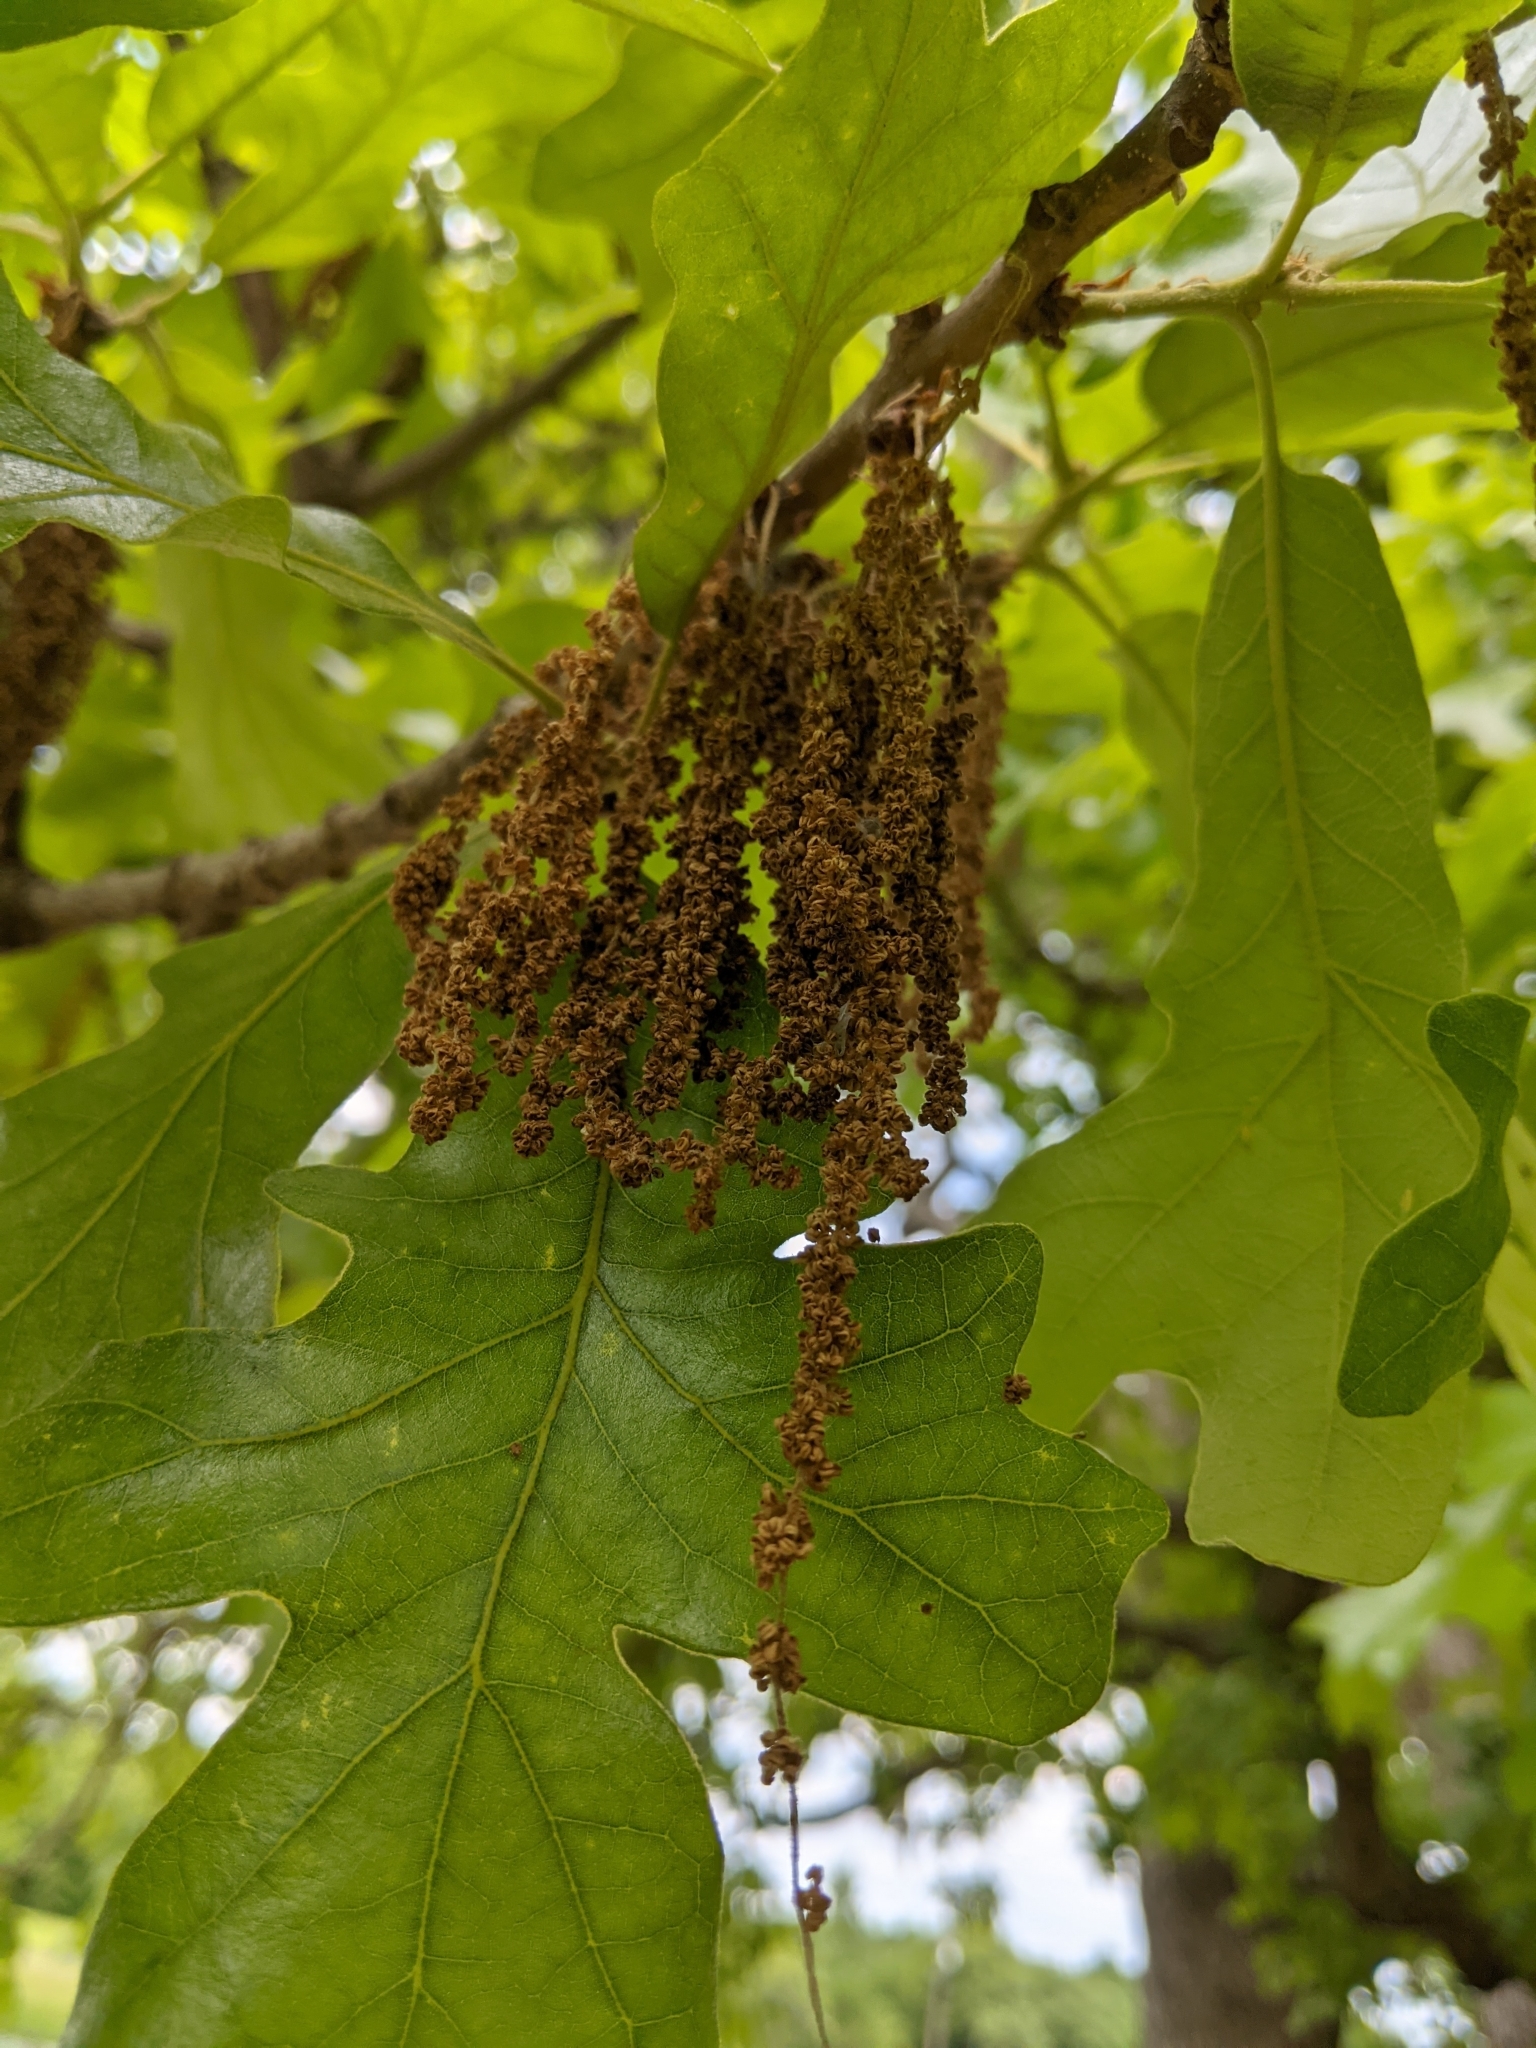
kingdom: Plantae
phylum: Tracheophyta
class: Magnoliopsida
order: Fagales
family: Fagaceae
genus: Quercus
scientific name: Quercus stellata
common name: Post oak
